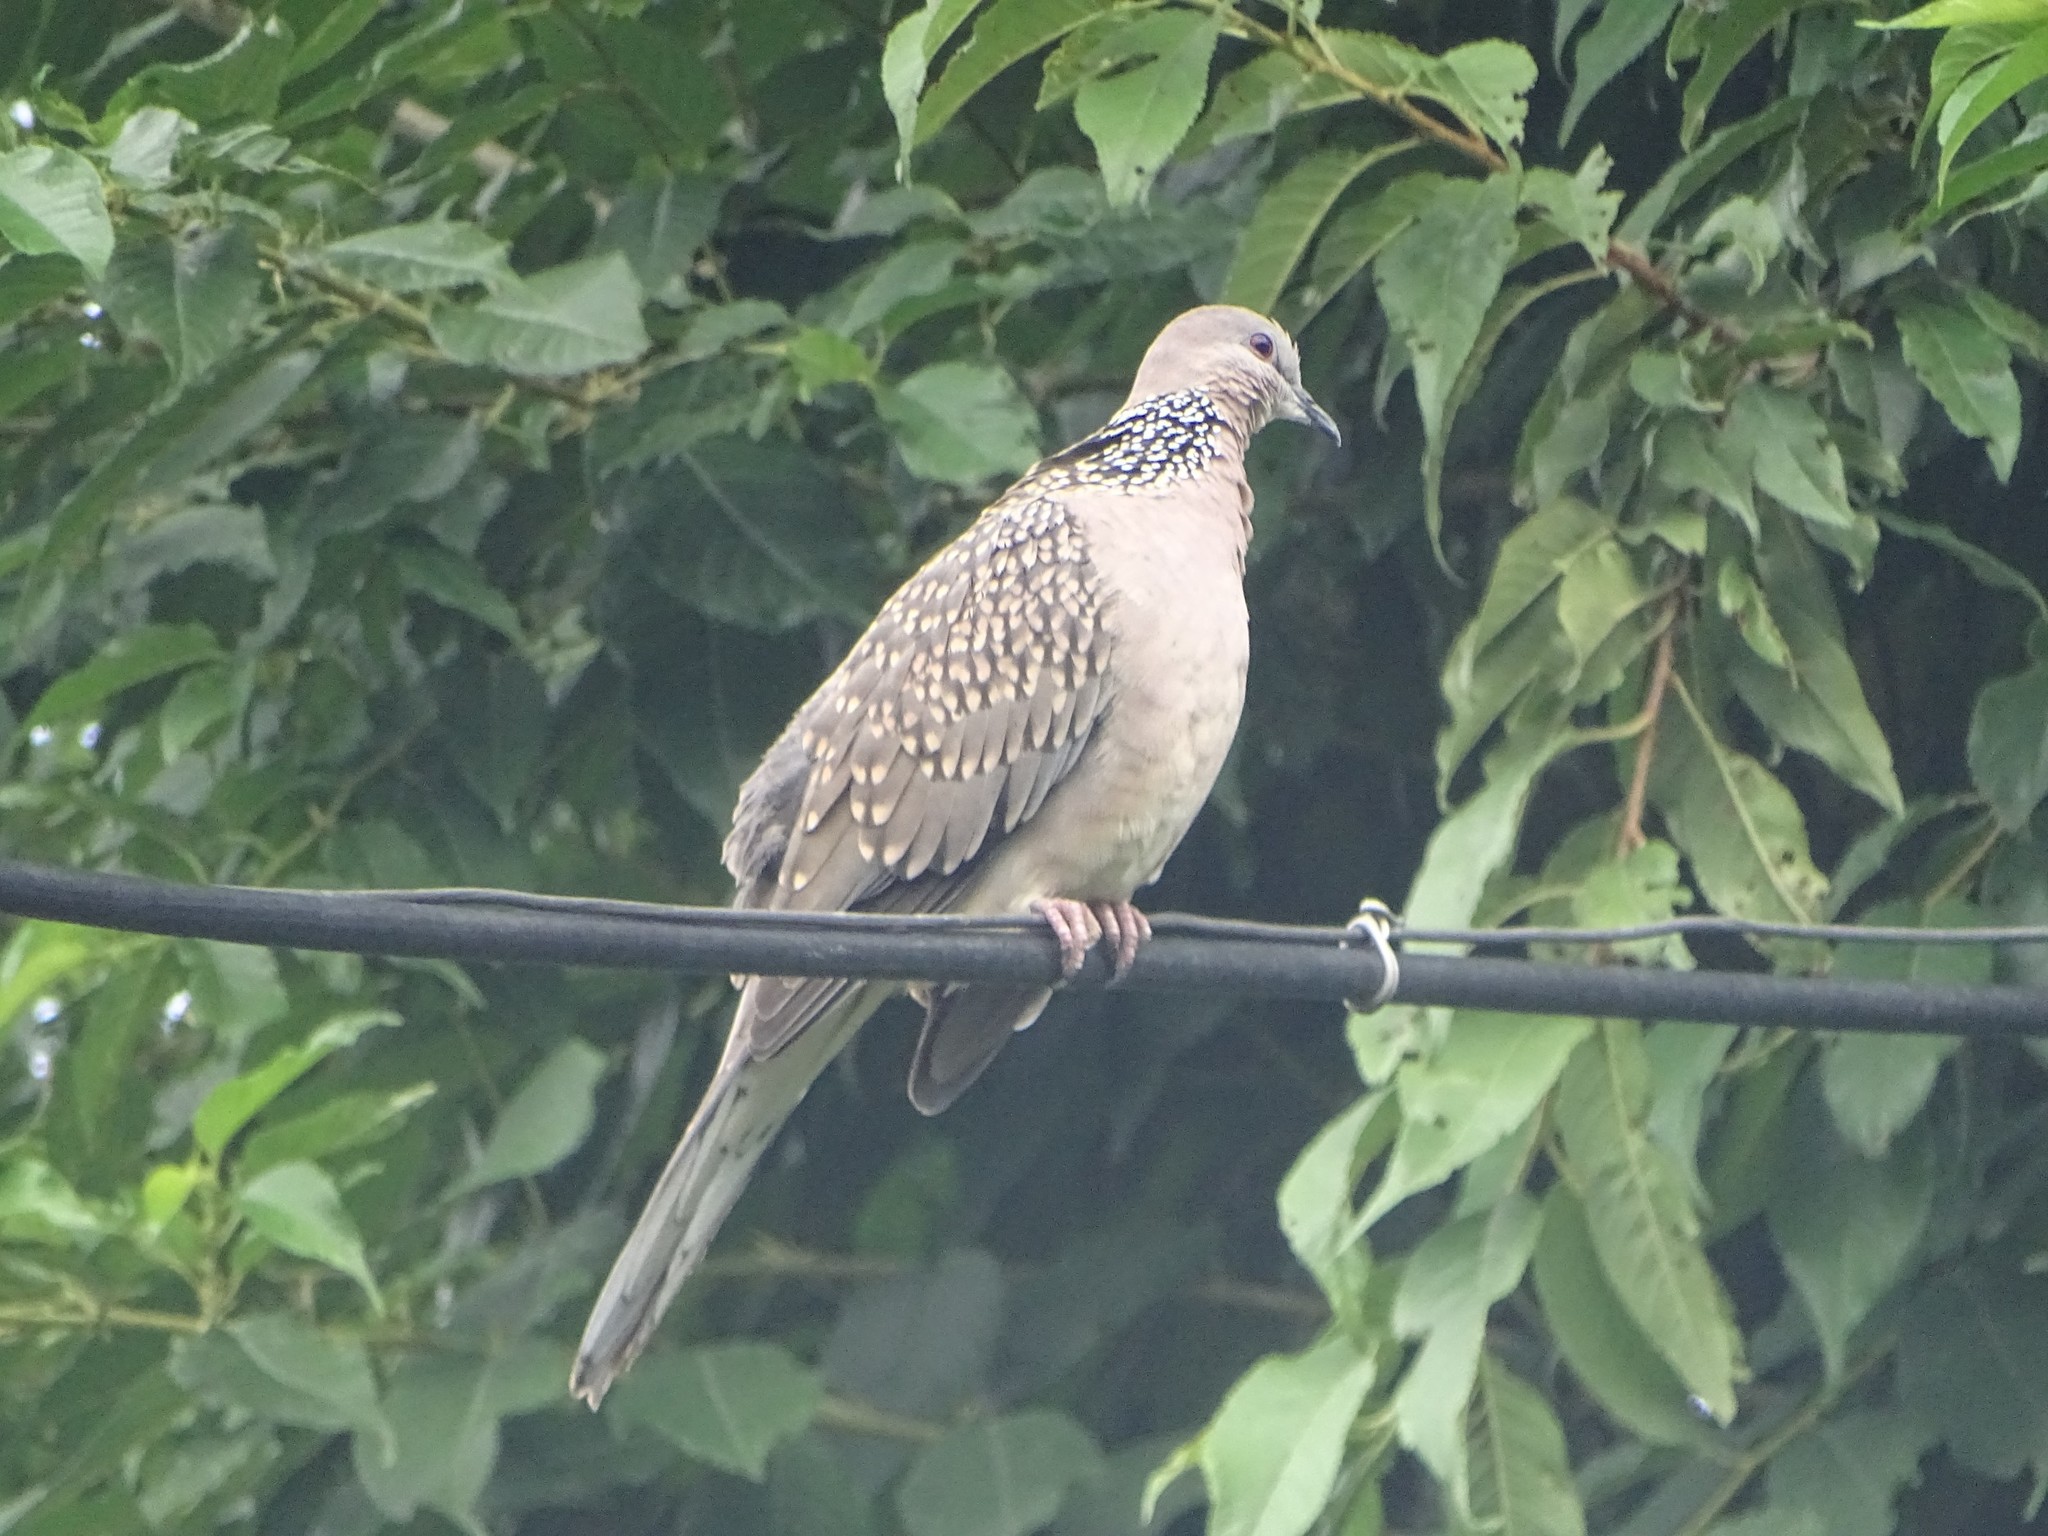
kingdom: Animalia
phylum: Chordata
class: Aves
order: Columbiformes
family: Columbidae
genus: Spilopelia
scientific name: Spilopelia chinensis
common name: Spotted dove
